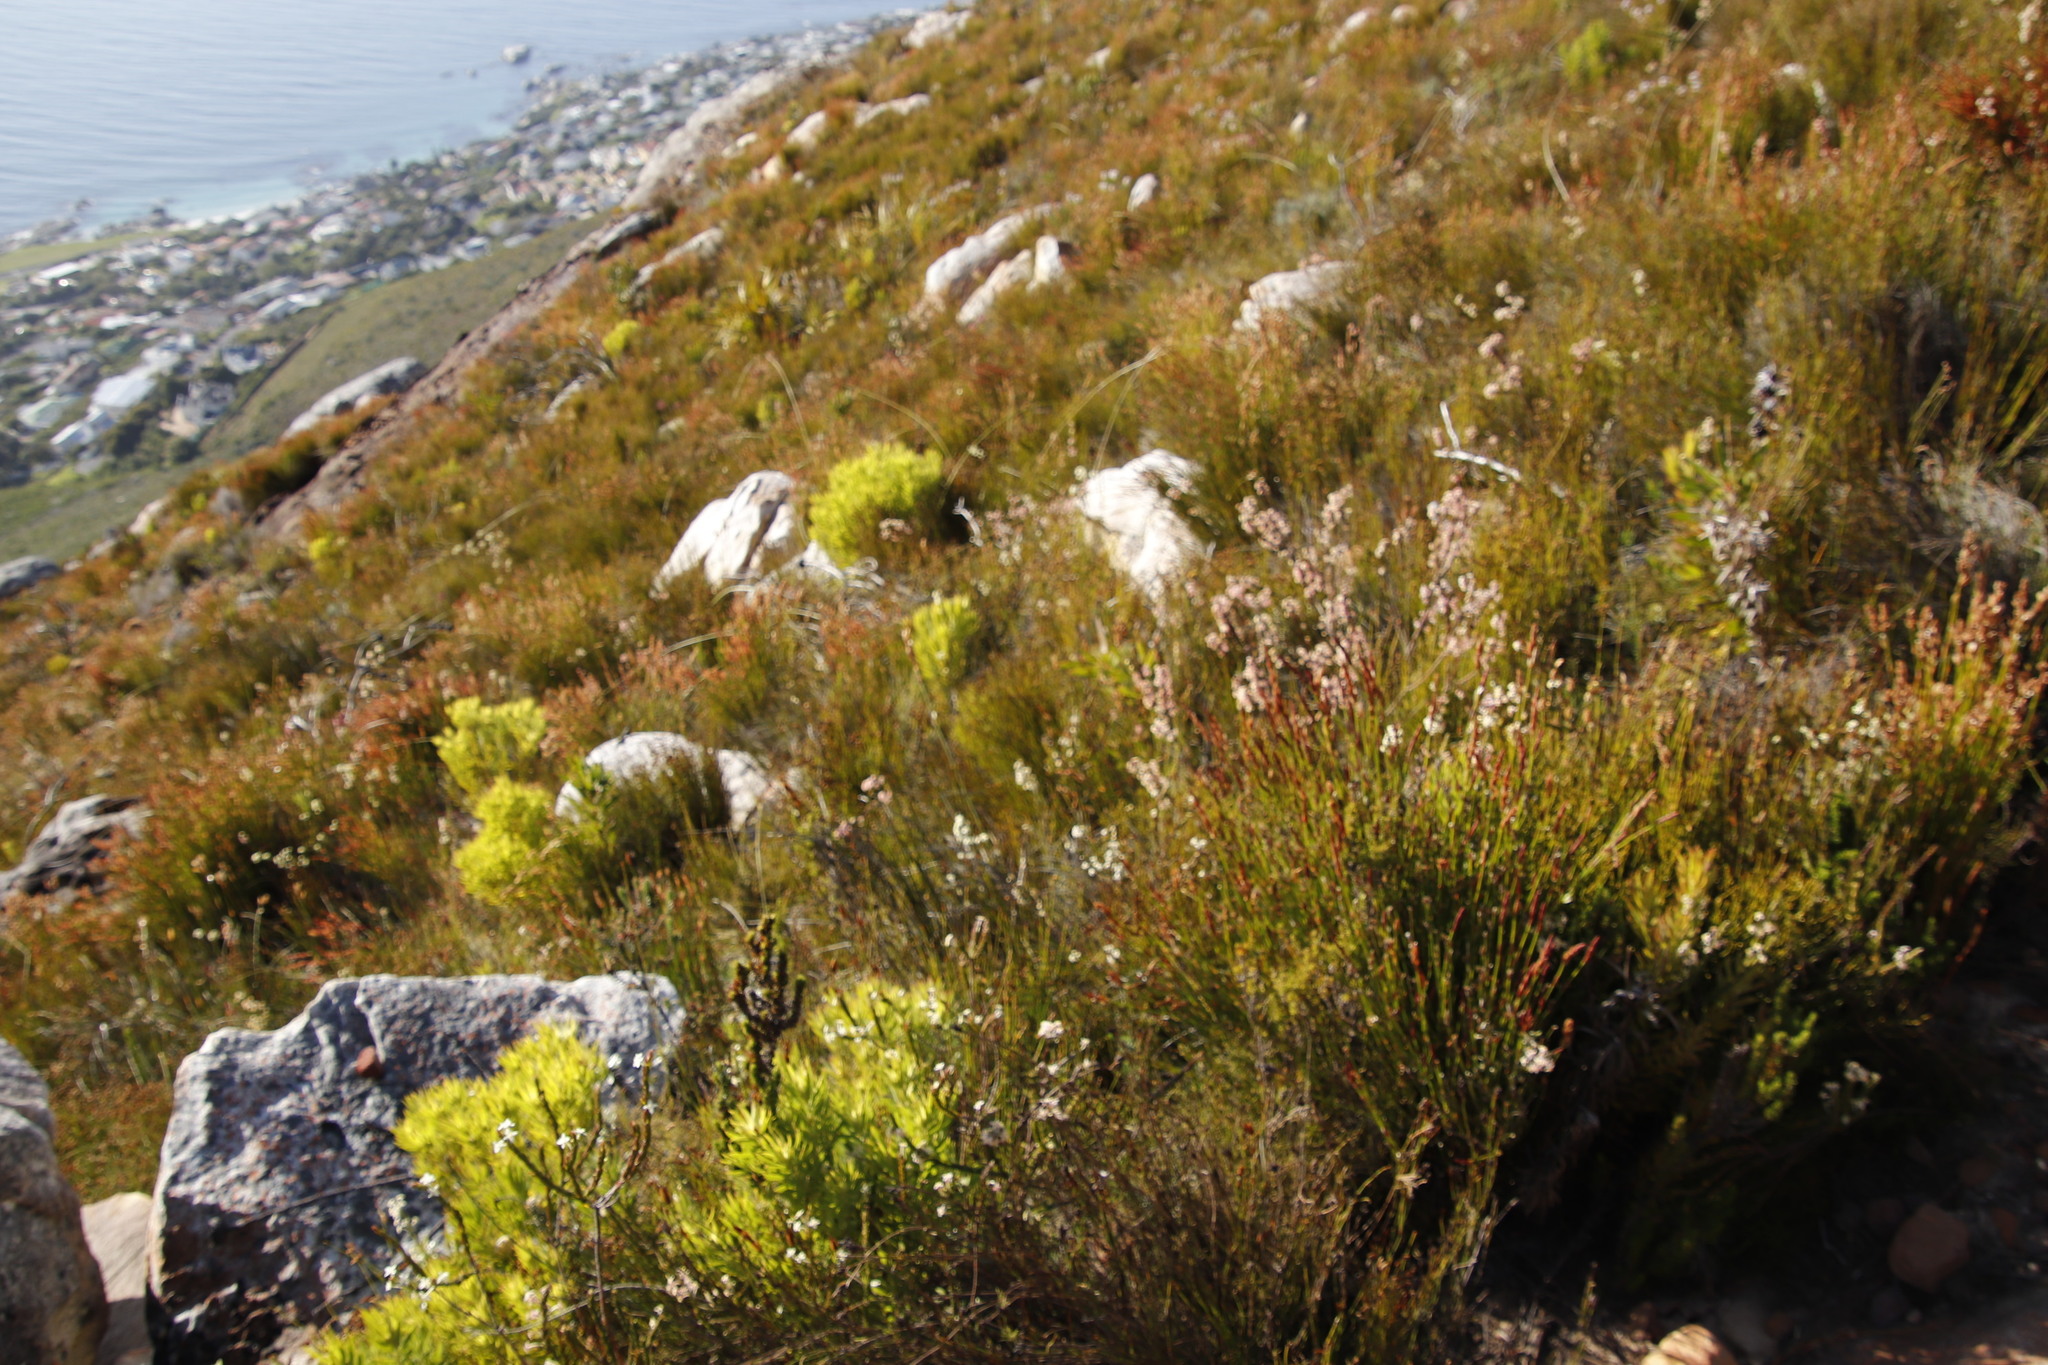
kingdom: Plantae
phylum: Tracheophyta
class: Magnoliopsida
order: Proteales
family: Proteaceae
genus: Leucadendron
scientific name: Leucadendron xanthoconus
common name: Sickle-leaf conebush
